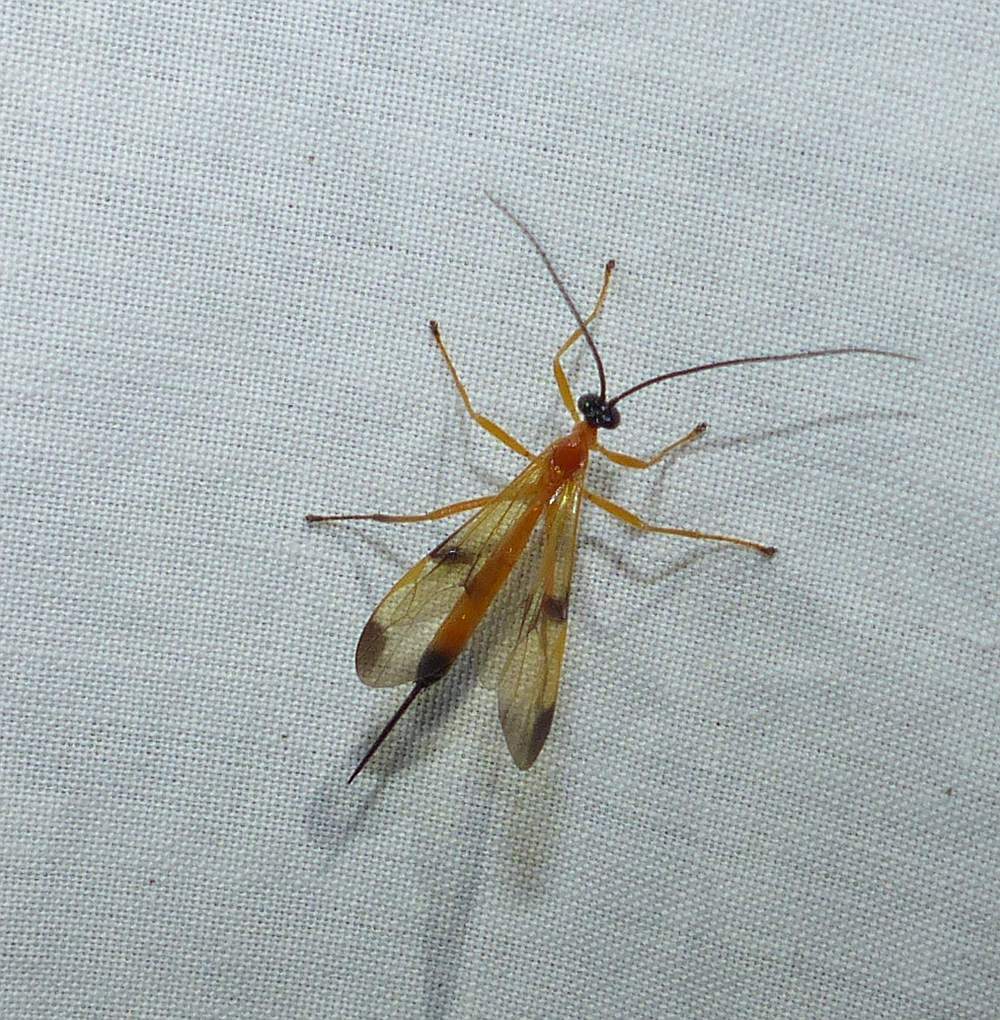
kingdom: Animalia
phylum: Arthropoda
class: Insecta
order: Hymenoptera
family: Ichneumonidae
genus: Acrotaphus
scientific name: Acrotaphus wiltii
